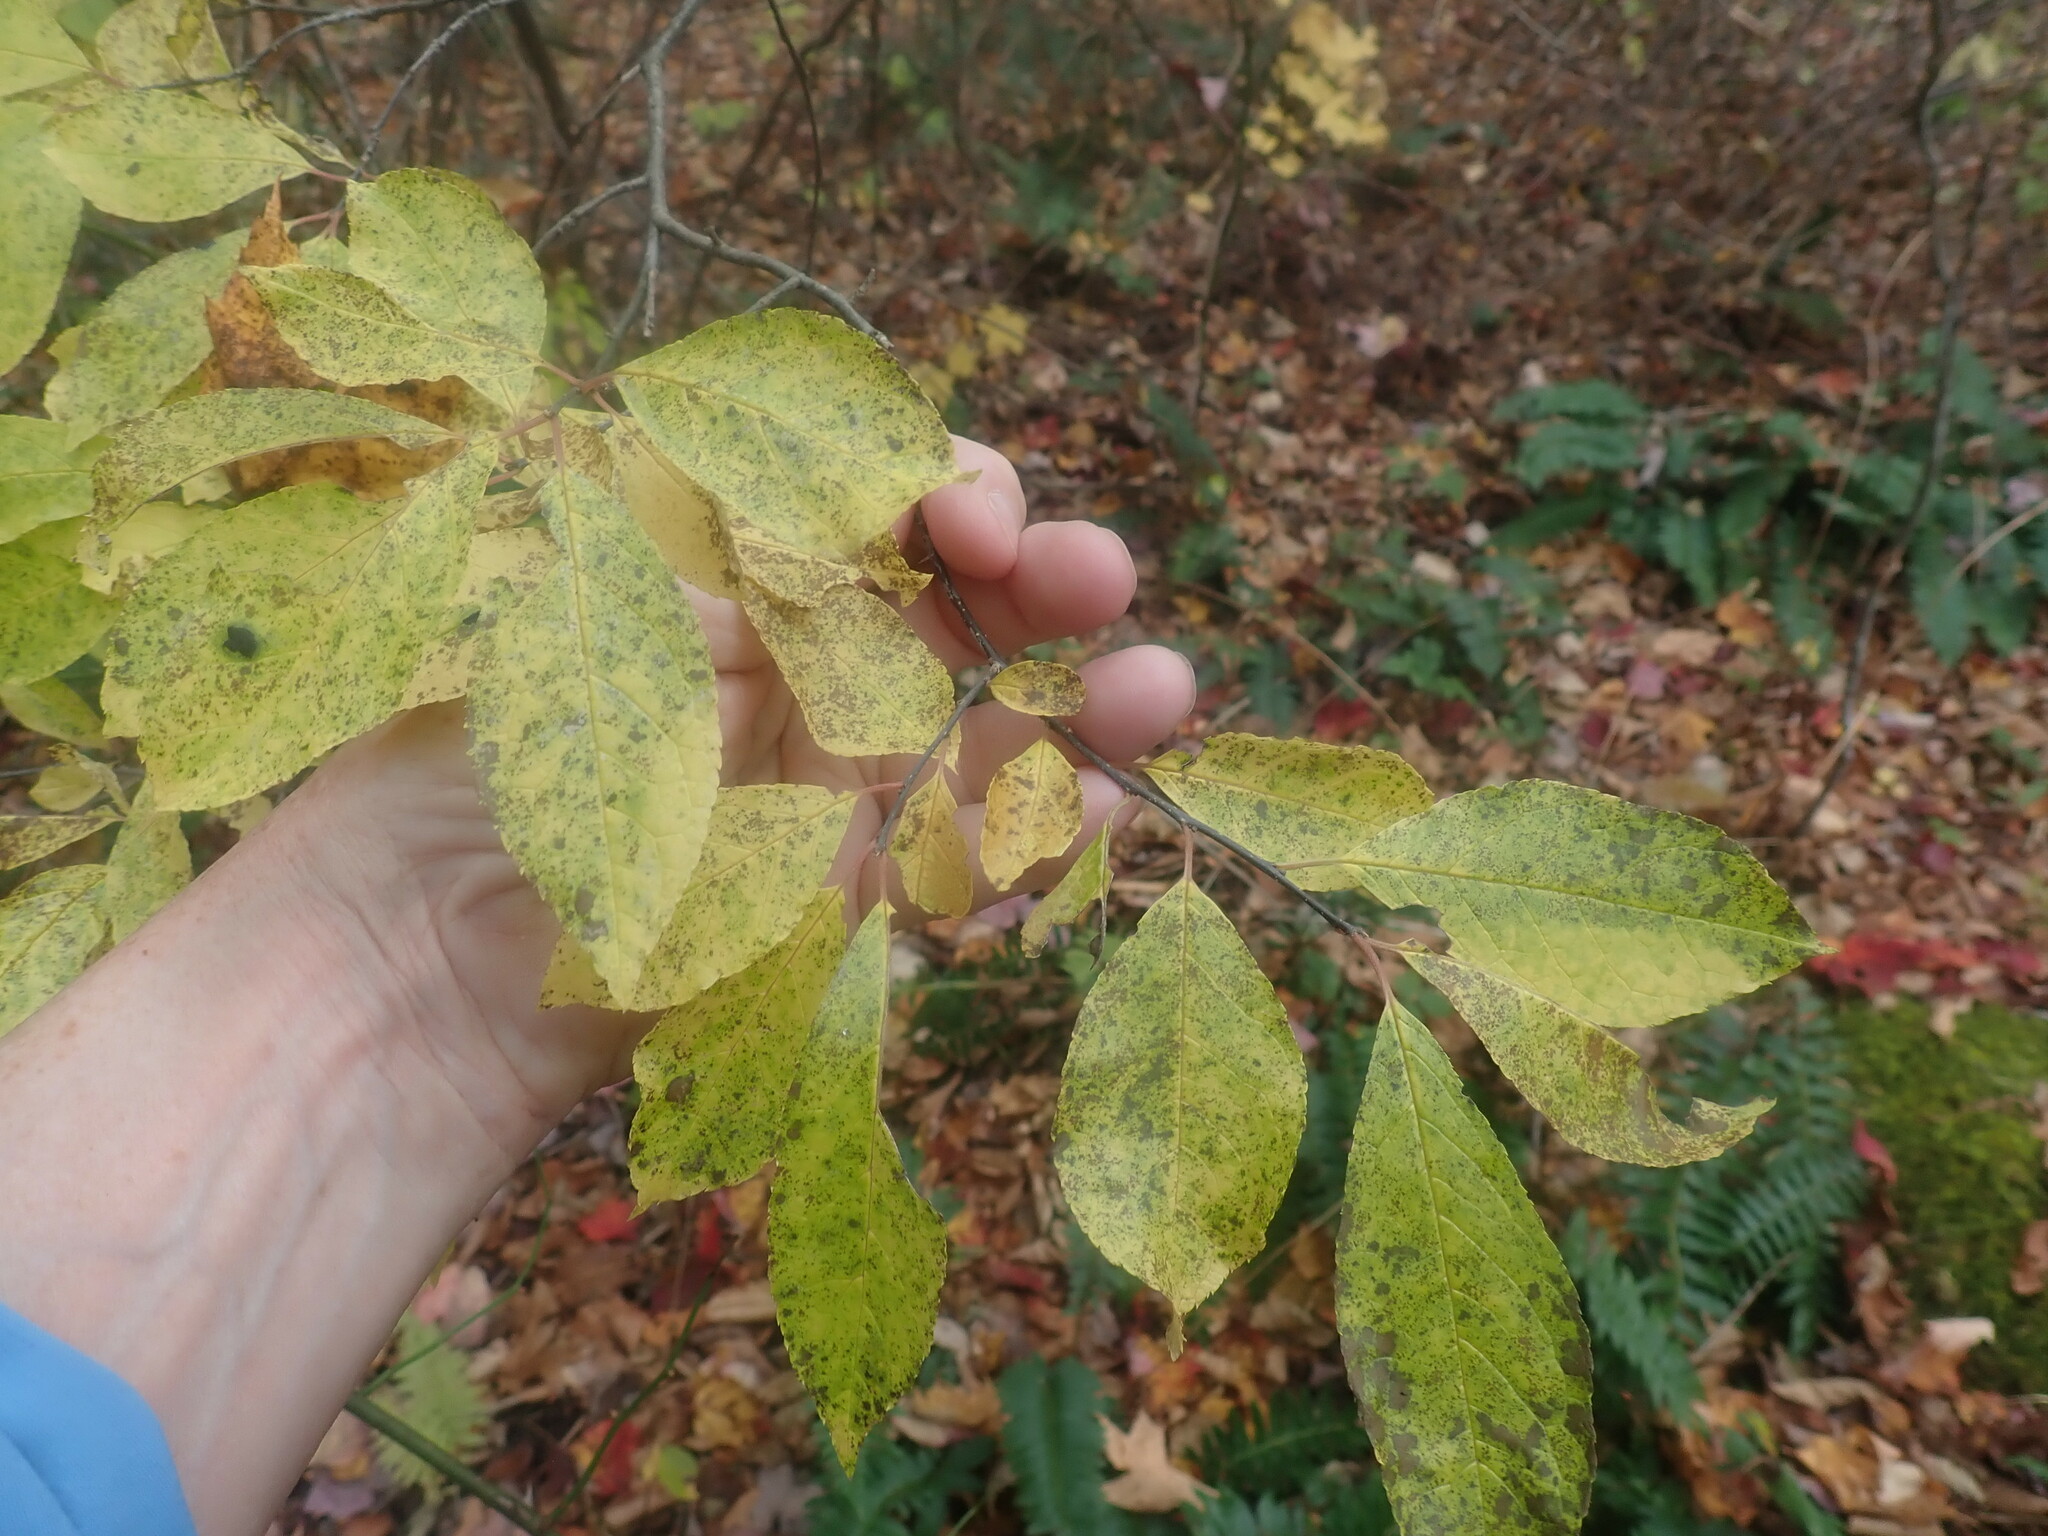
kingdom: Plantae
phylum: Tracheophyta
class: Magnoliopsida
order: Aquifoliales
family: Aquifoliaceae
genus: Ilex
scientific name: Ilex verticillata
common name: Virginia winterberry
